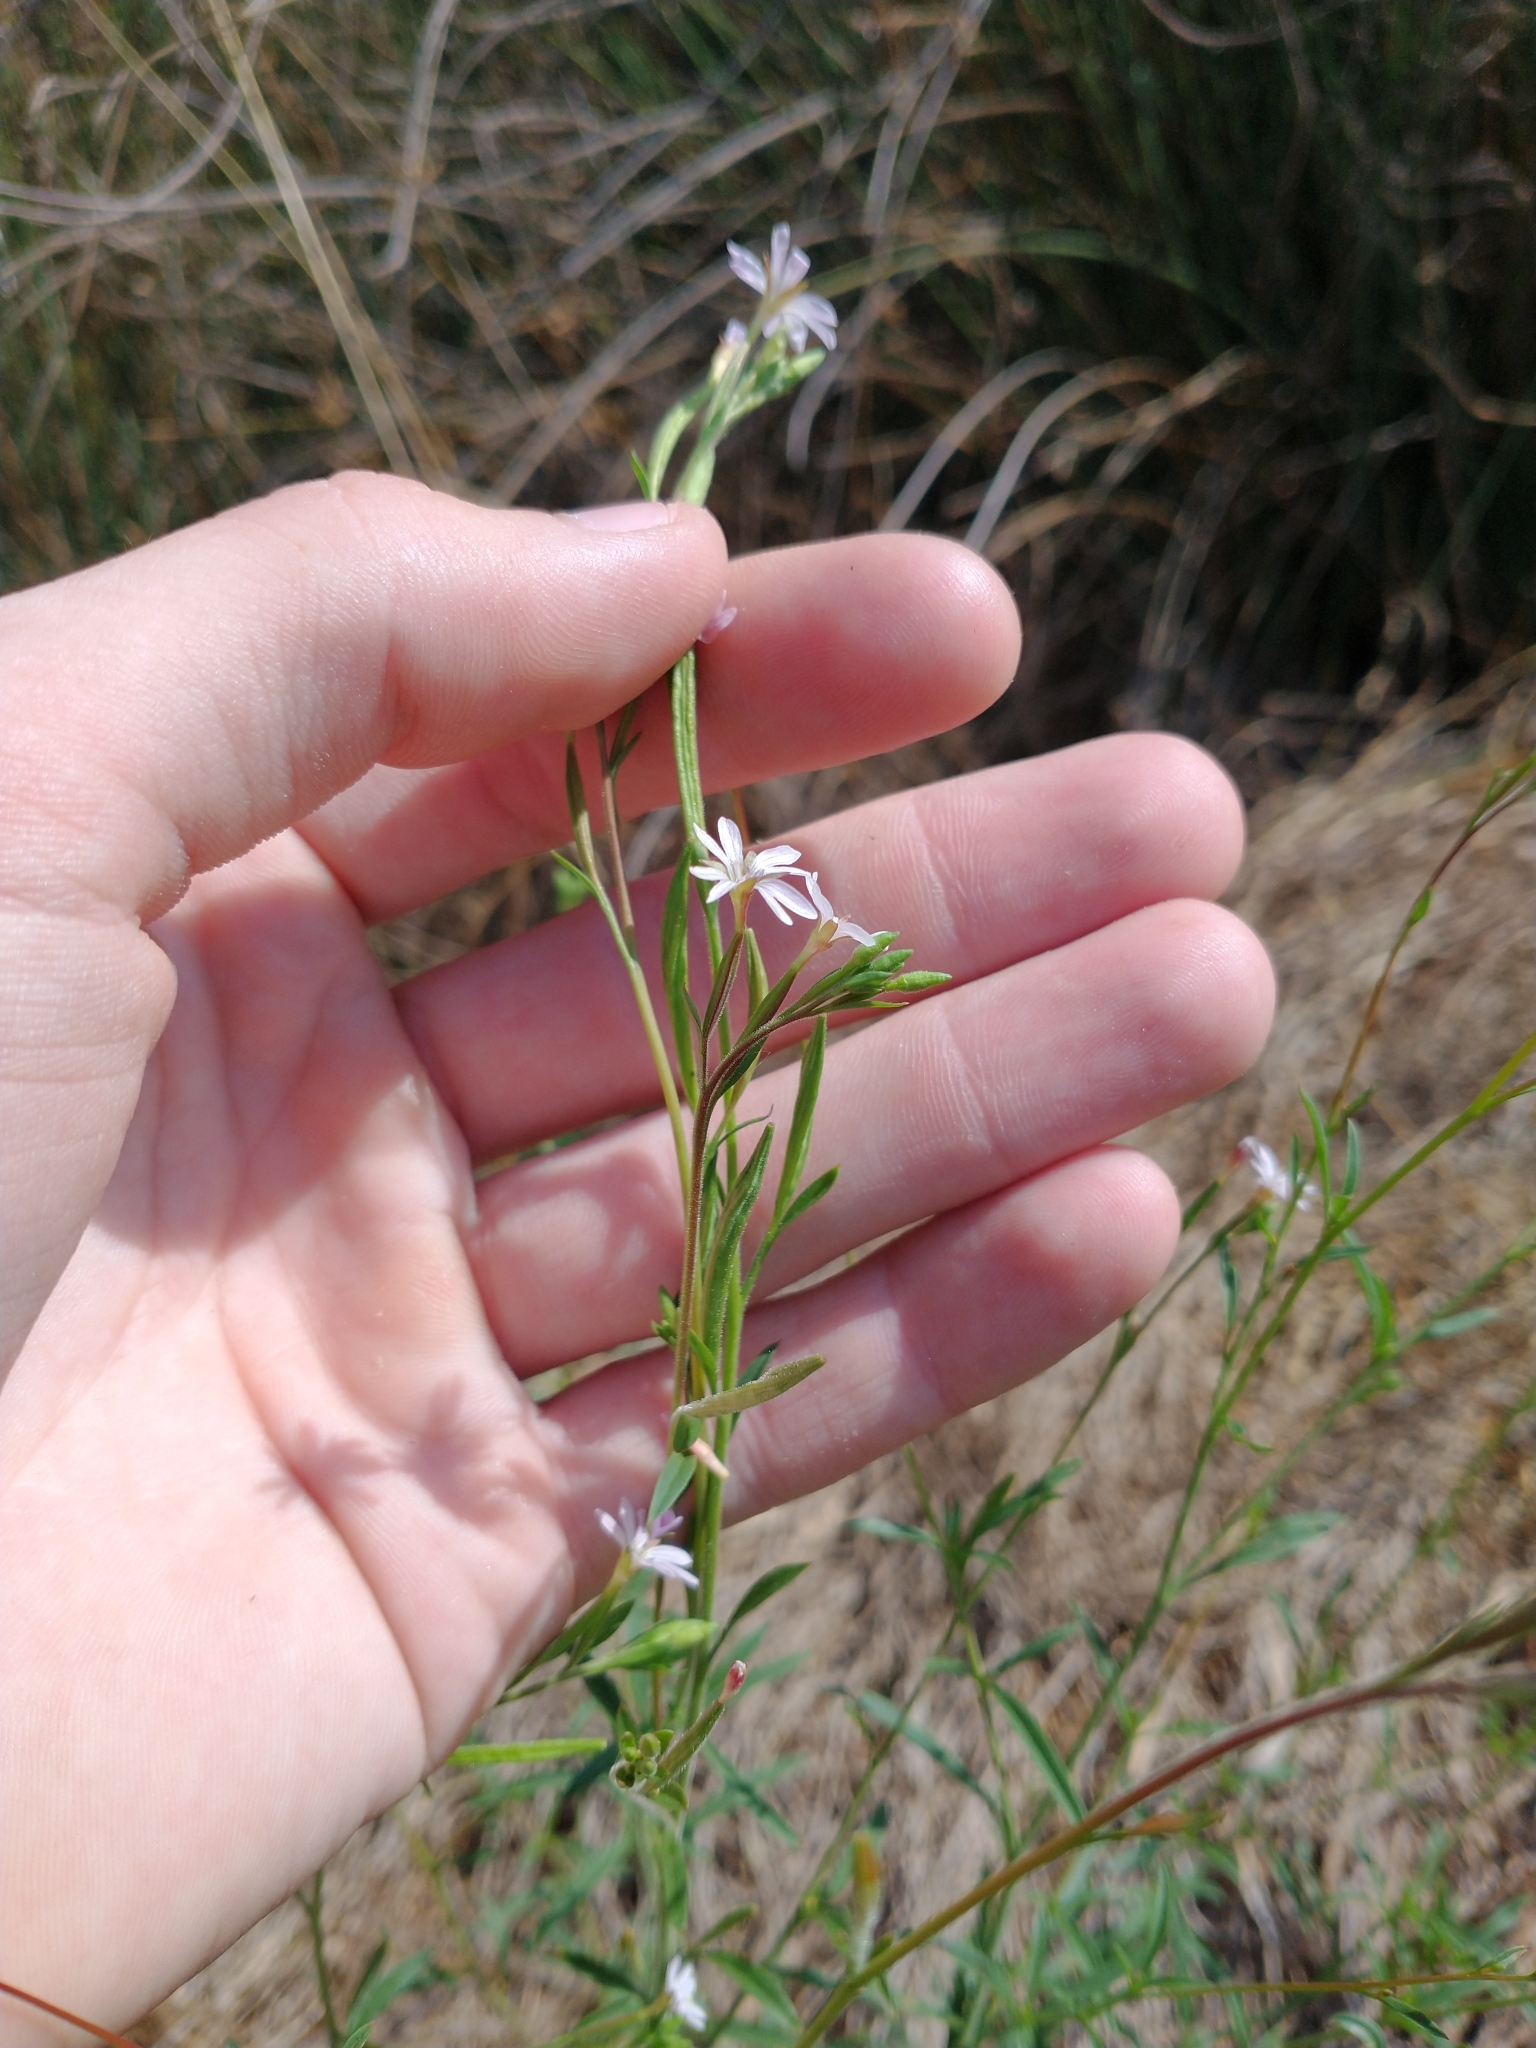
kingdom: Plantae
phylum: Tracheophyta
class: Magnoliopsida
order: Myrtales
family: Onagraceae
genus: Epilobium
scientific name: Epilobium brachycarpum
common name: Annual willowherb
